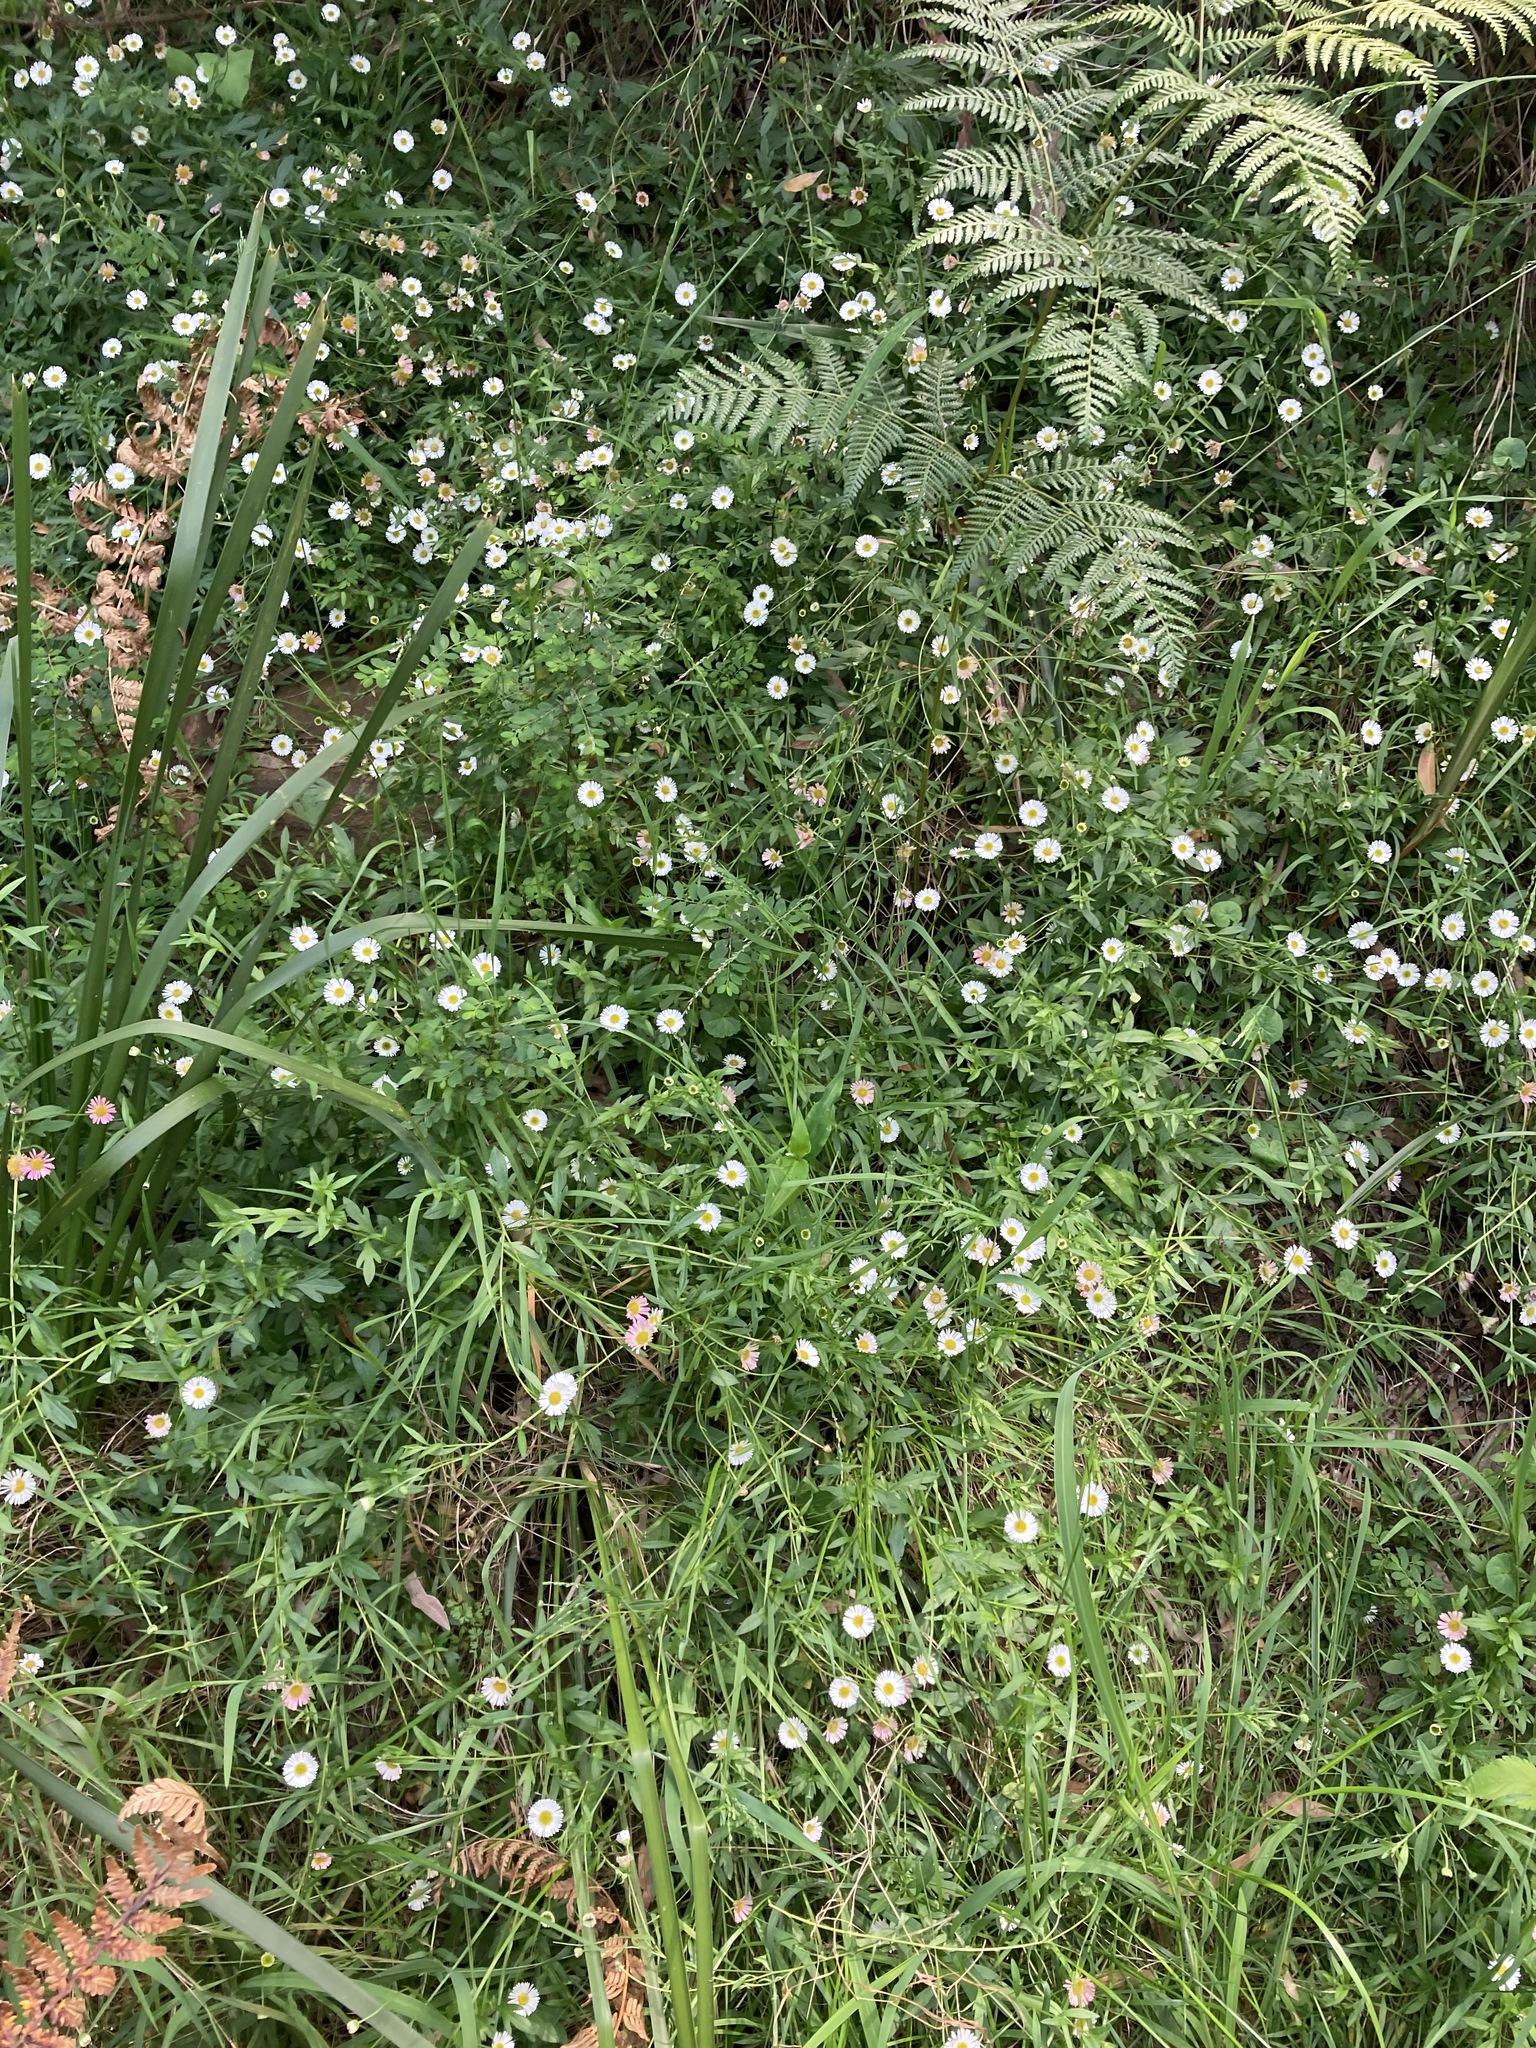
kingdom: Plantae
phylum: Tracheophyta
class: Magnoliopsida
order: Asterales
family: Asteraceae
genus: Erigeron
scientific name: Erigeron karvinskianus
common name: Mexican fleabane
